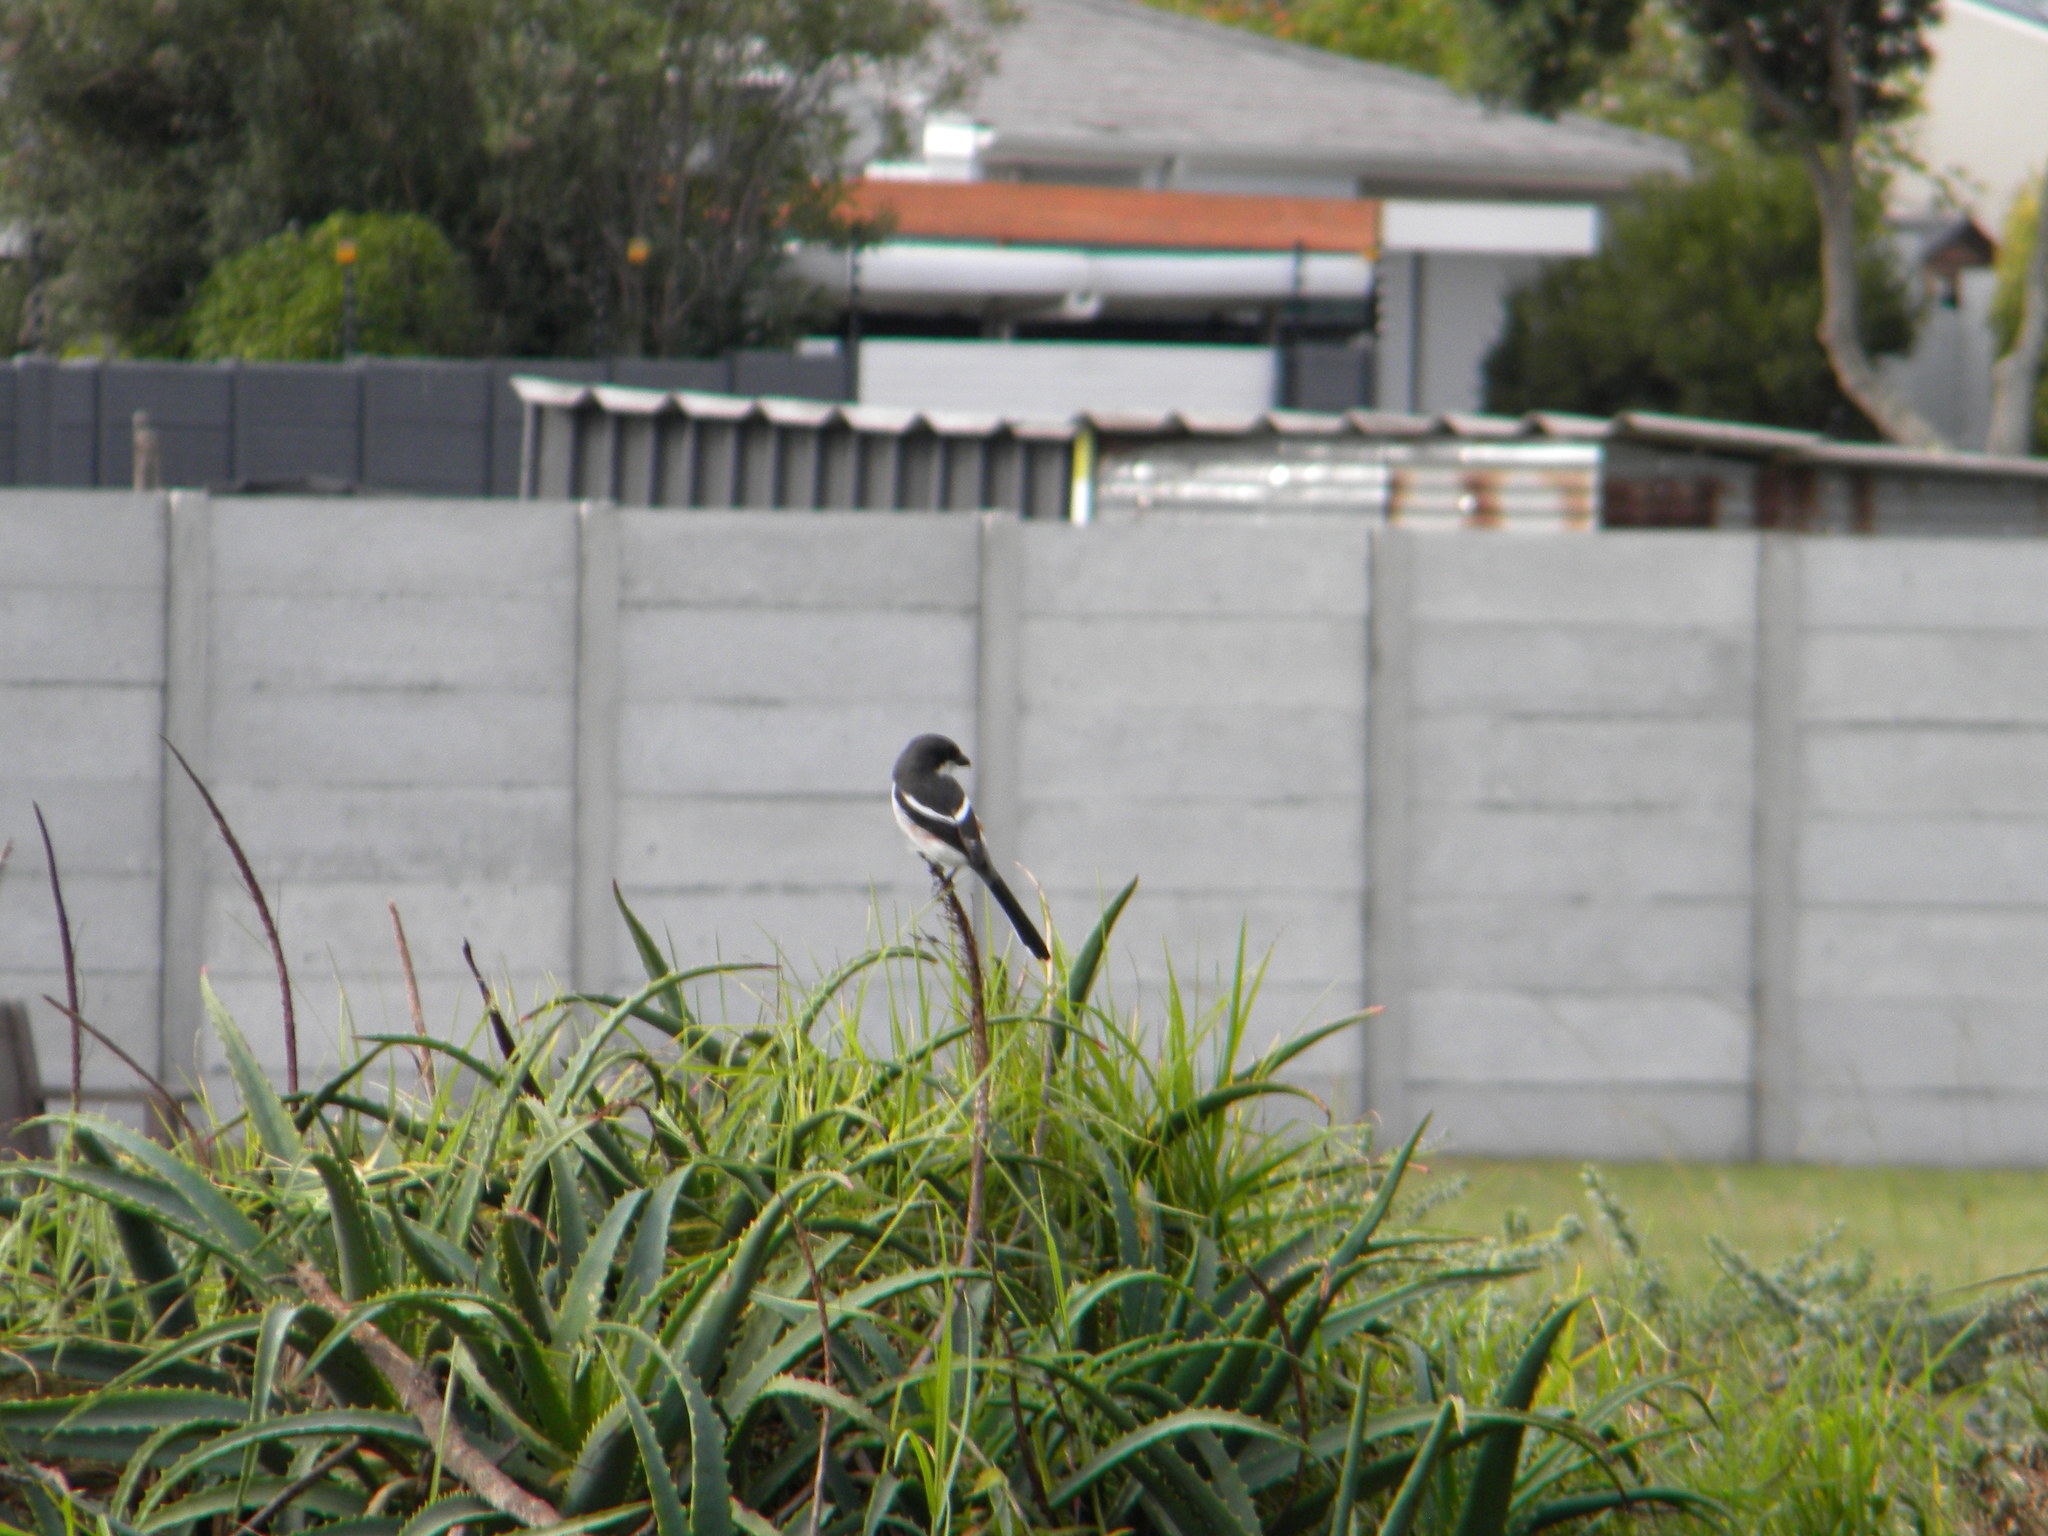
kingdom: Animalia
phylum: Chordata
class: Aves
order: Passeriformes
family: Laniidae
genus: Lanius
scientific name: Lanius collaris
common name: Southern fiscal
